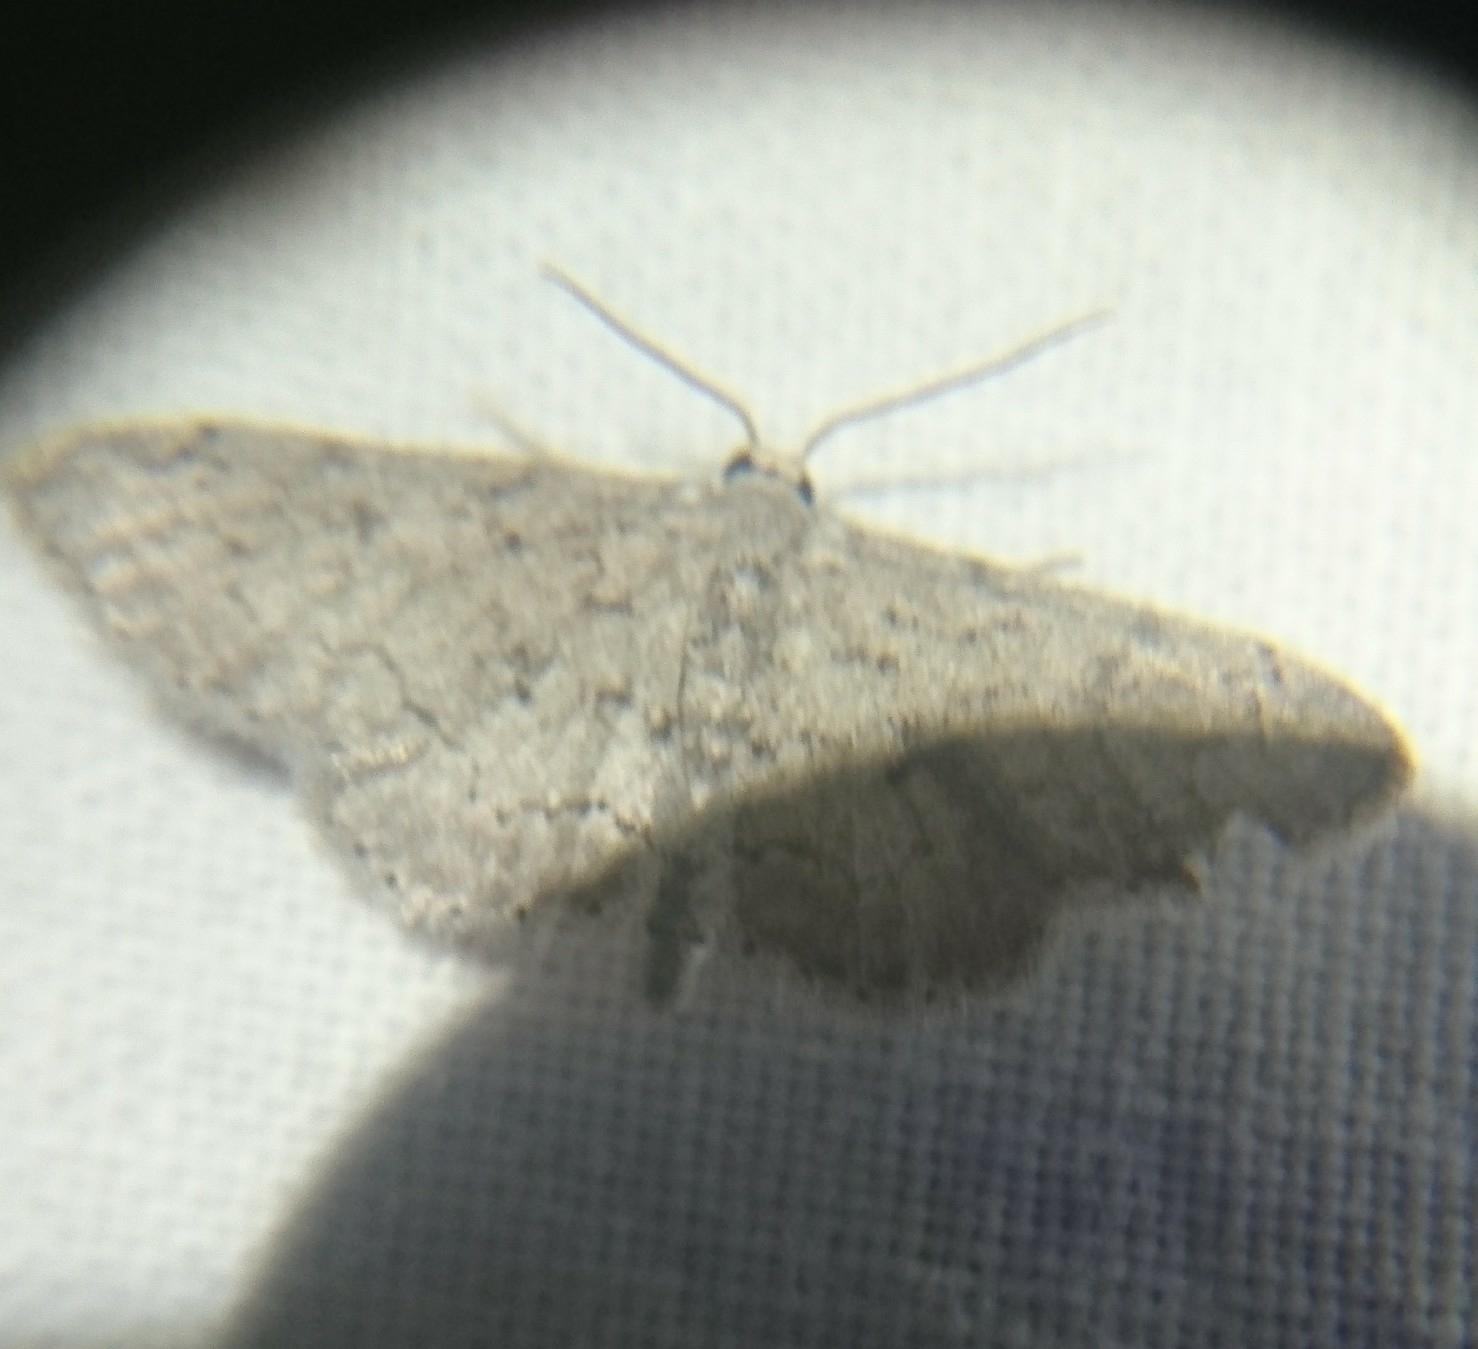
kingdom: Animalia
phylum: Arthropoda
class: Insecta
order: Lepidoptera
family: Geometridae
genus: Idaea
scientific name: Idaea violacearia
